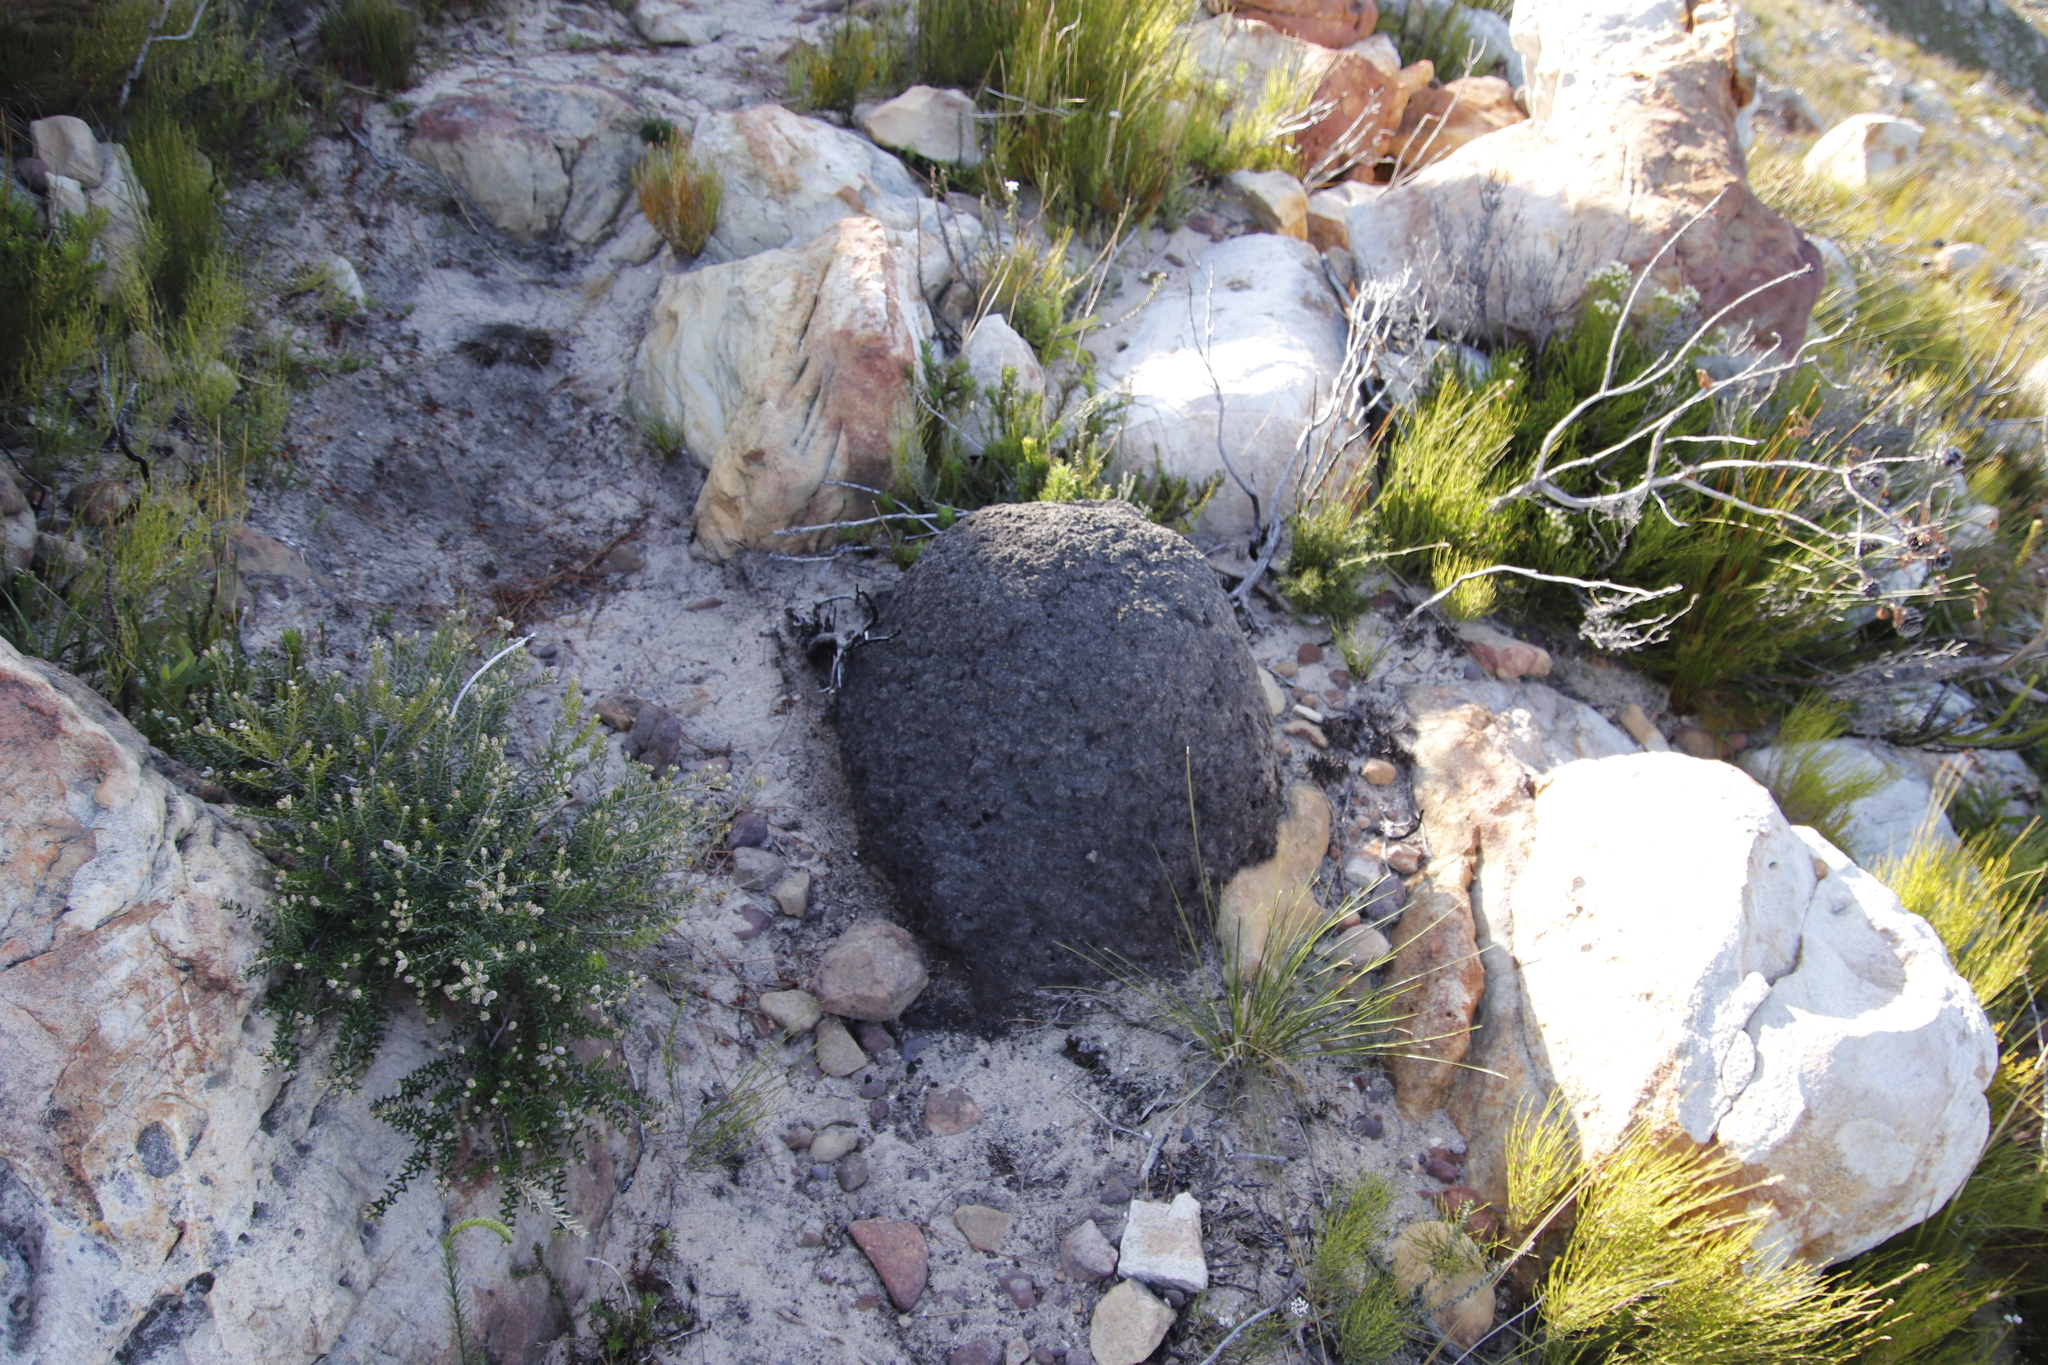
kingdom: Animalia
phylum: Arthropoda
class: Insecta
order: Blattodea
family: Termitidae
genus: Amitermes
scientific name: Amitermes hastatus
